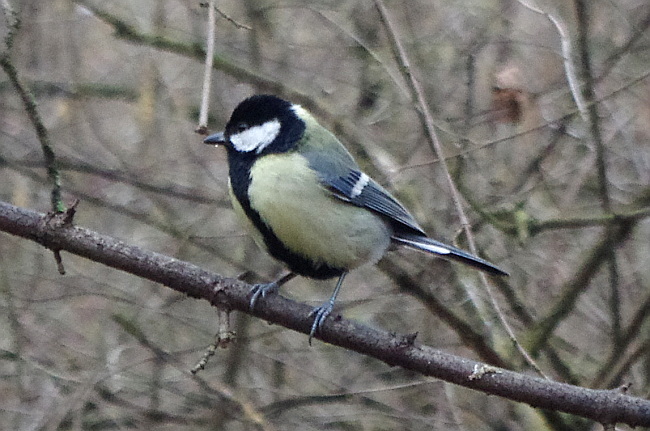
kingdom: Animalia
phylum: Chordata
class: Aves
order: Passeriformes
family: Paridae
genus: Parus
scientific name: Parus major
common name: Great tit
